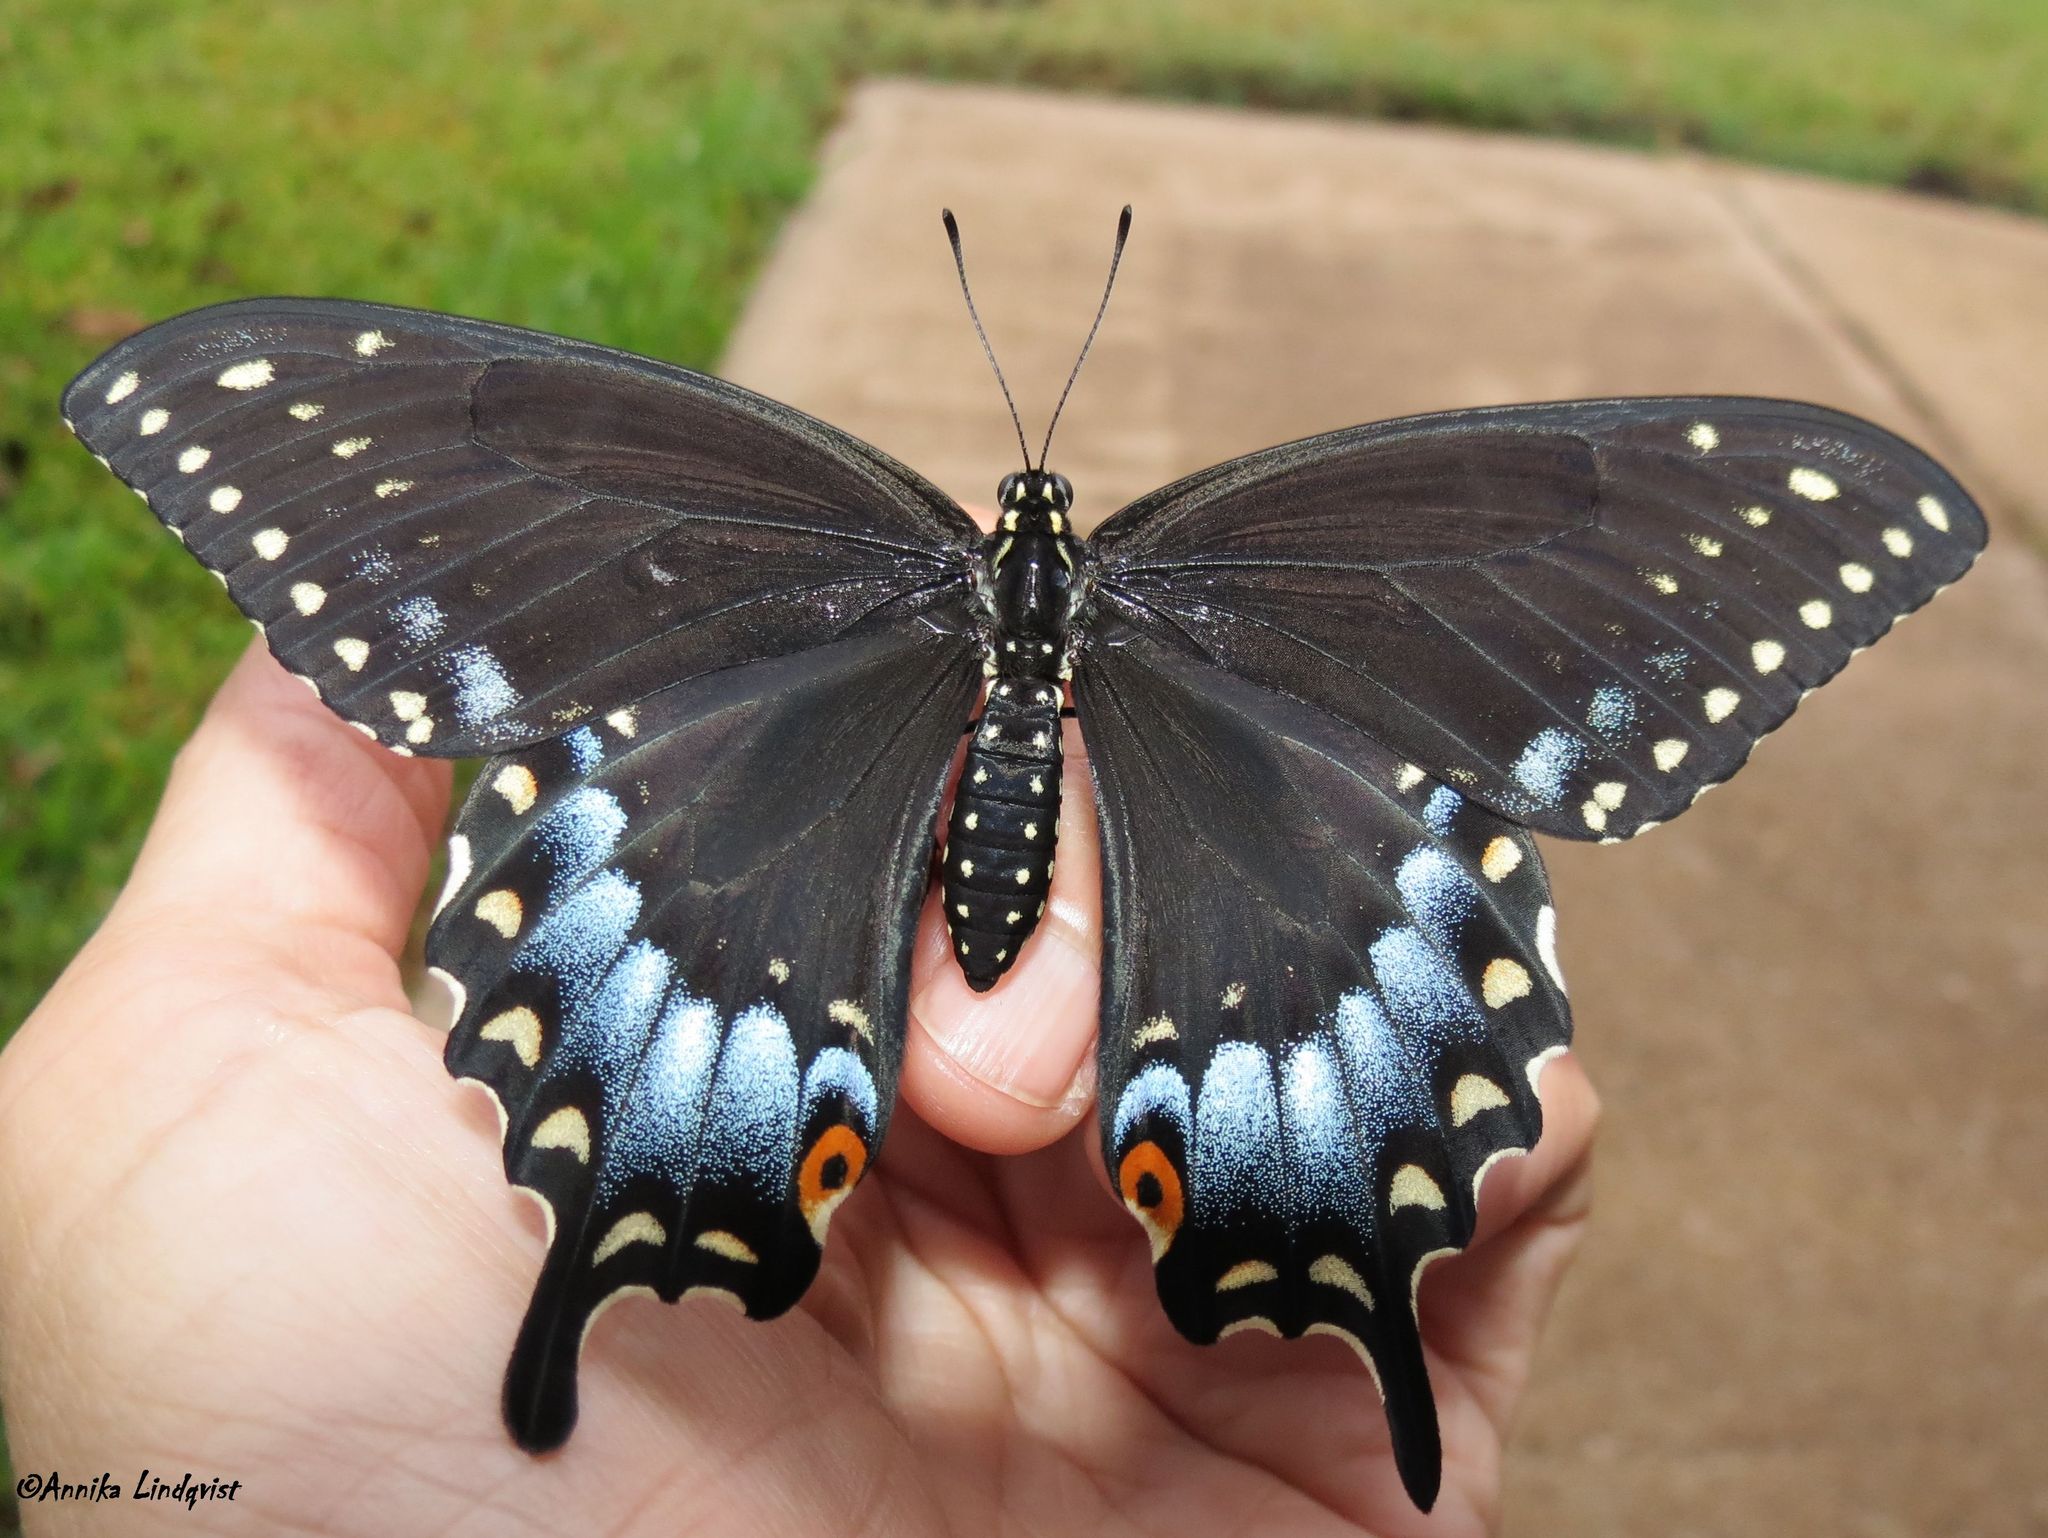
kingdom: Animalia
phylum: Arthropoda
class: Insecta
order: Lepidoptera
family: Papilionidae
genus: Papilio
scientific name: Papilio polyxenes
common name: Black swallowtail
